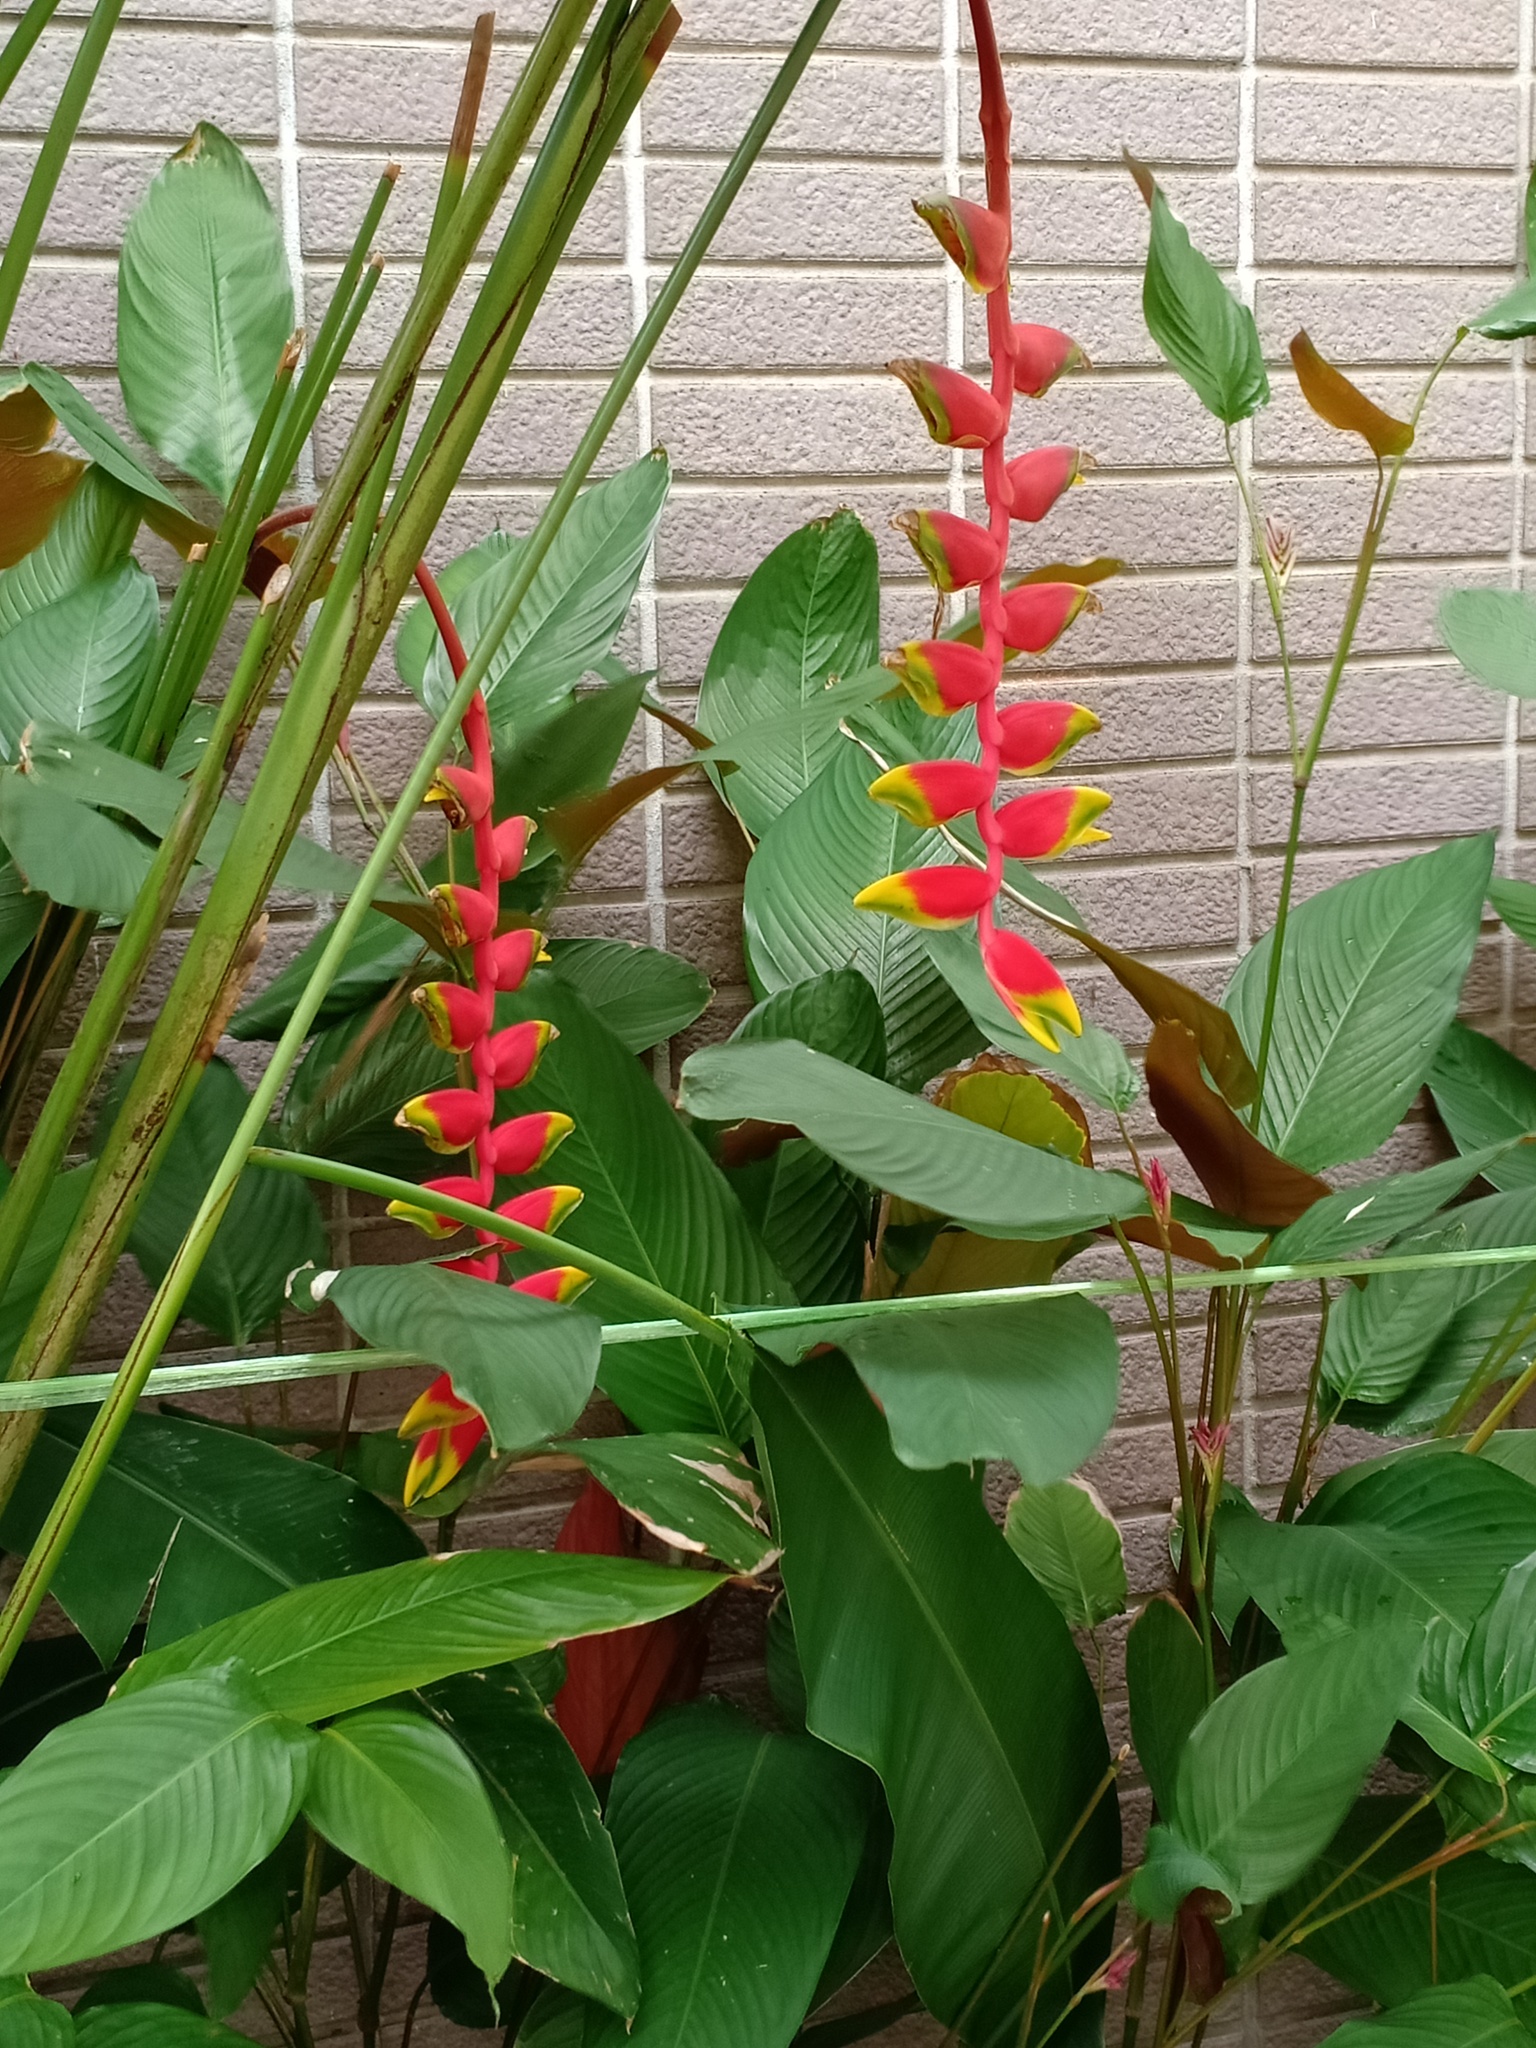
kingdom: Plantae
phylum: Tracheophyta
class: Liliopsida
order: Zingiberales
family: Heliconiaceae
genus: Heliconia
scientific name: Heliconia rostrata
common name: False bird of paradise
